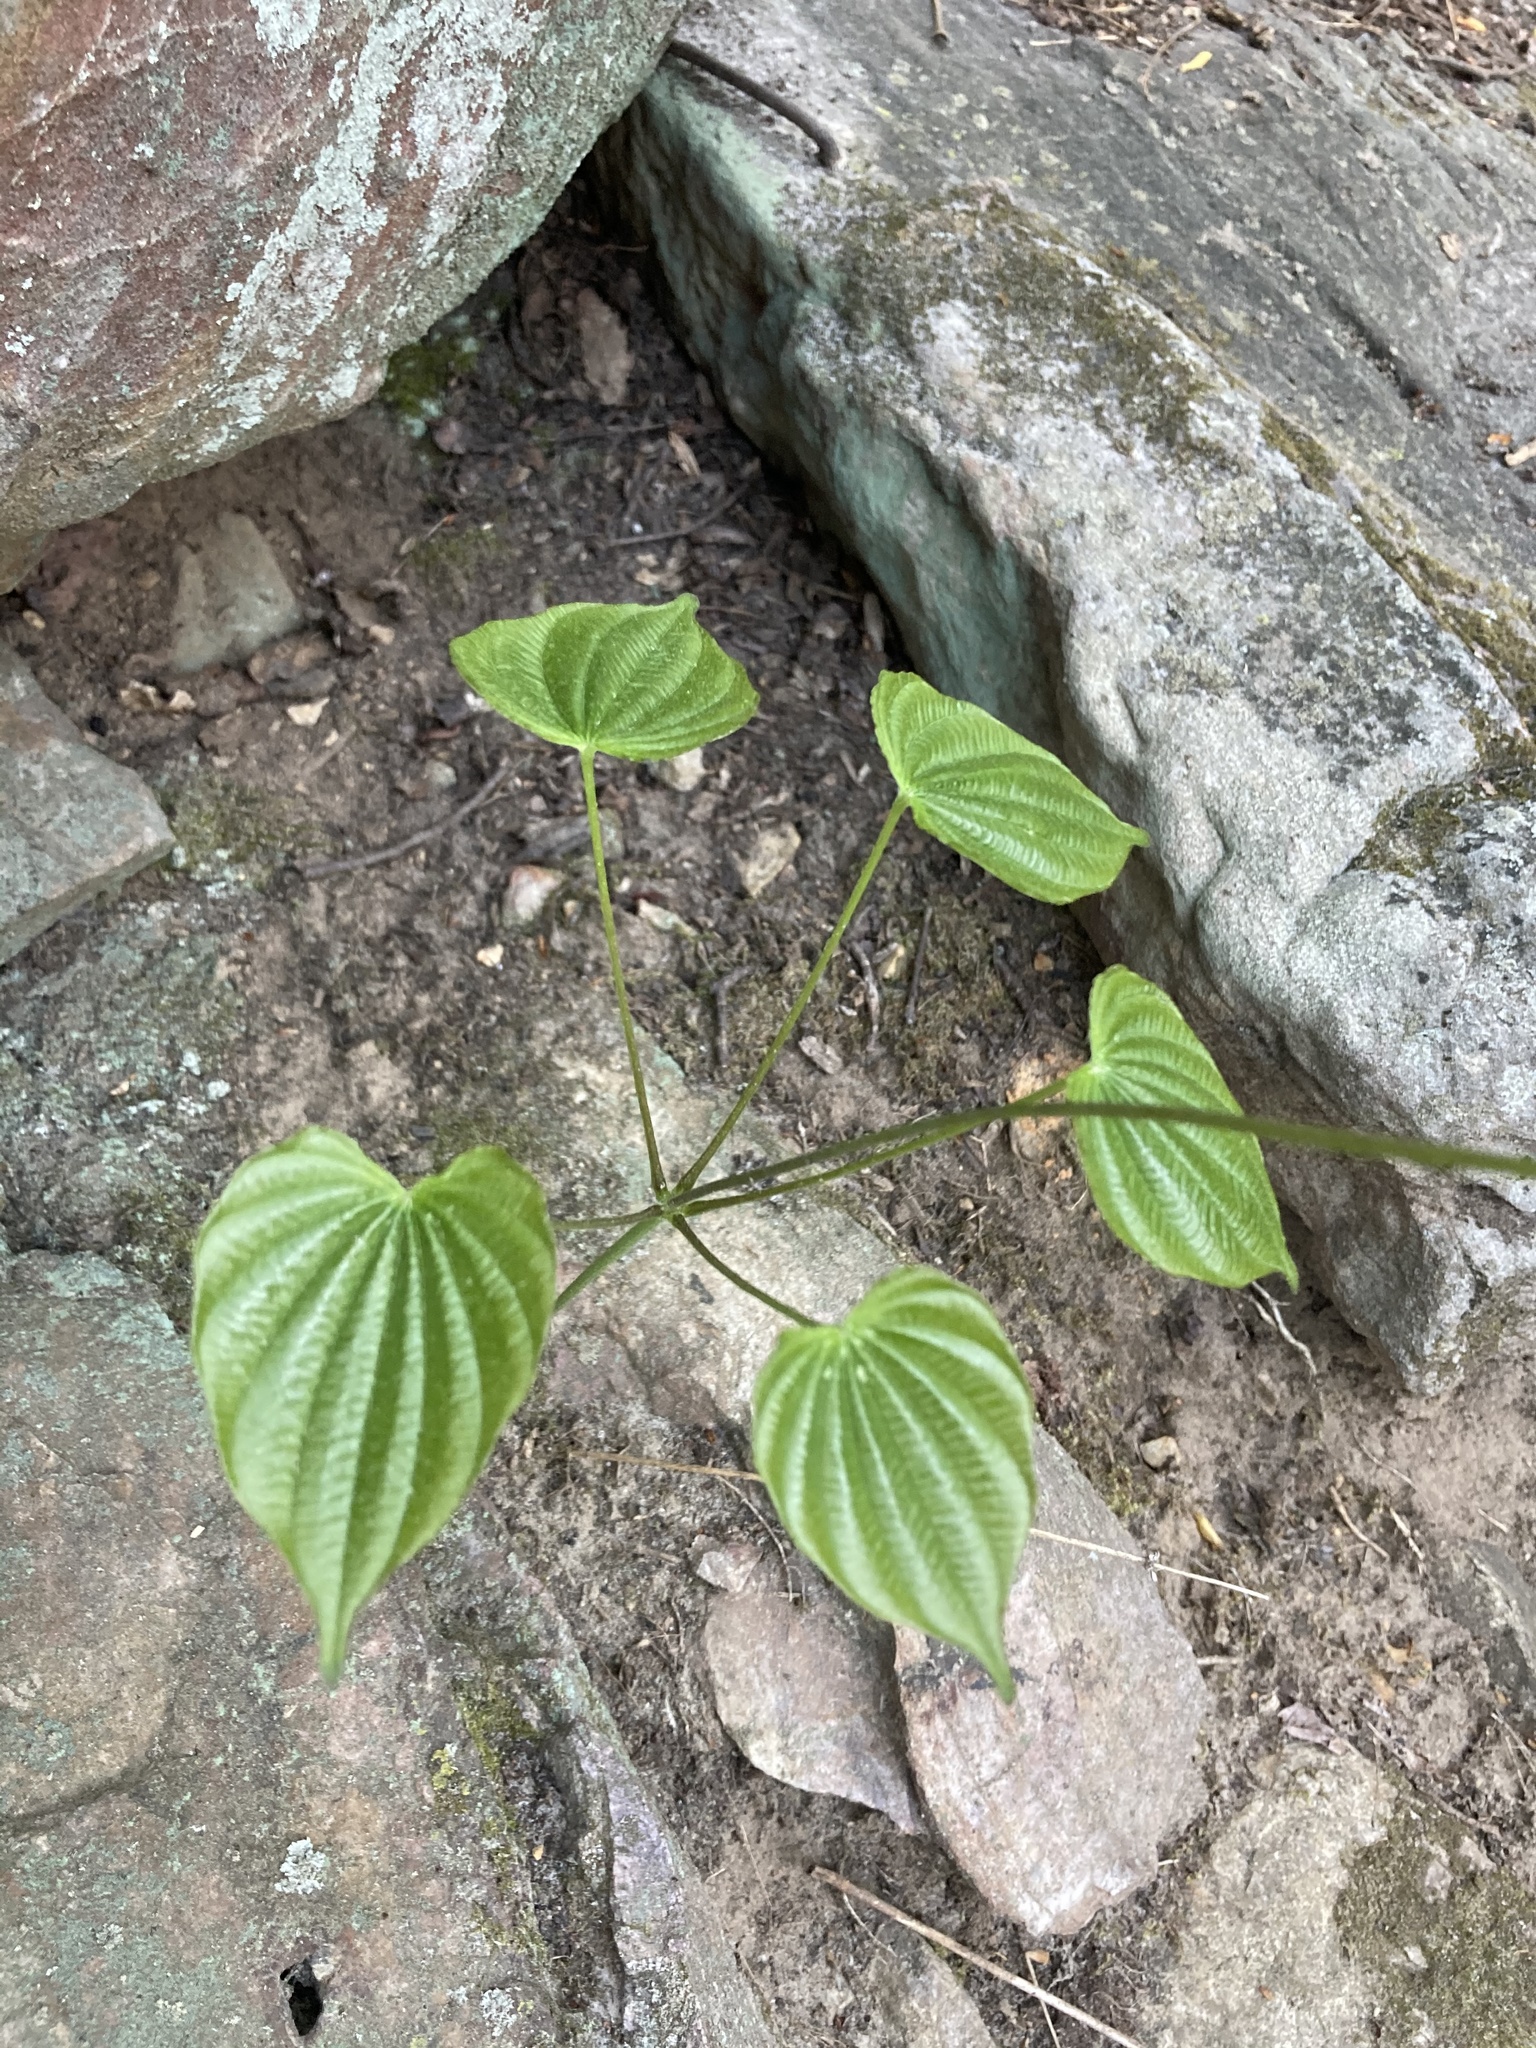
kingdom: Plantae
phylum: Tracheophyta
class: Liliopsida
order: Dioscoreales
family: Dioscoreaceae
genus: Dioscorea
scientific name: Dioscorea villosa
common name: Wild yam
